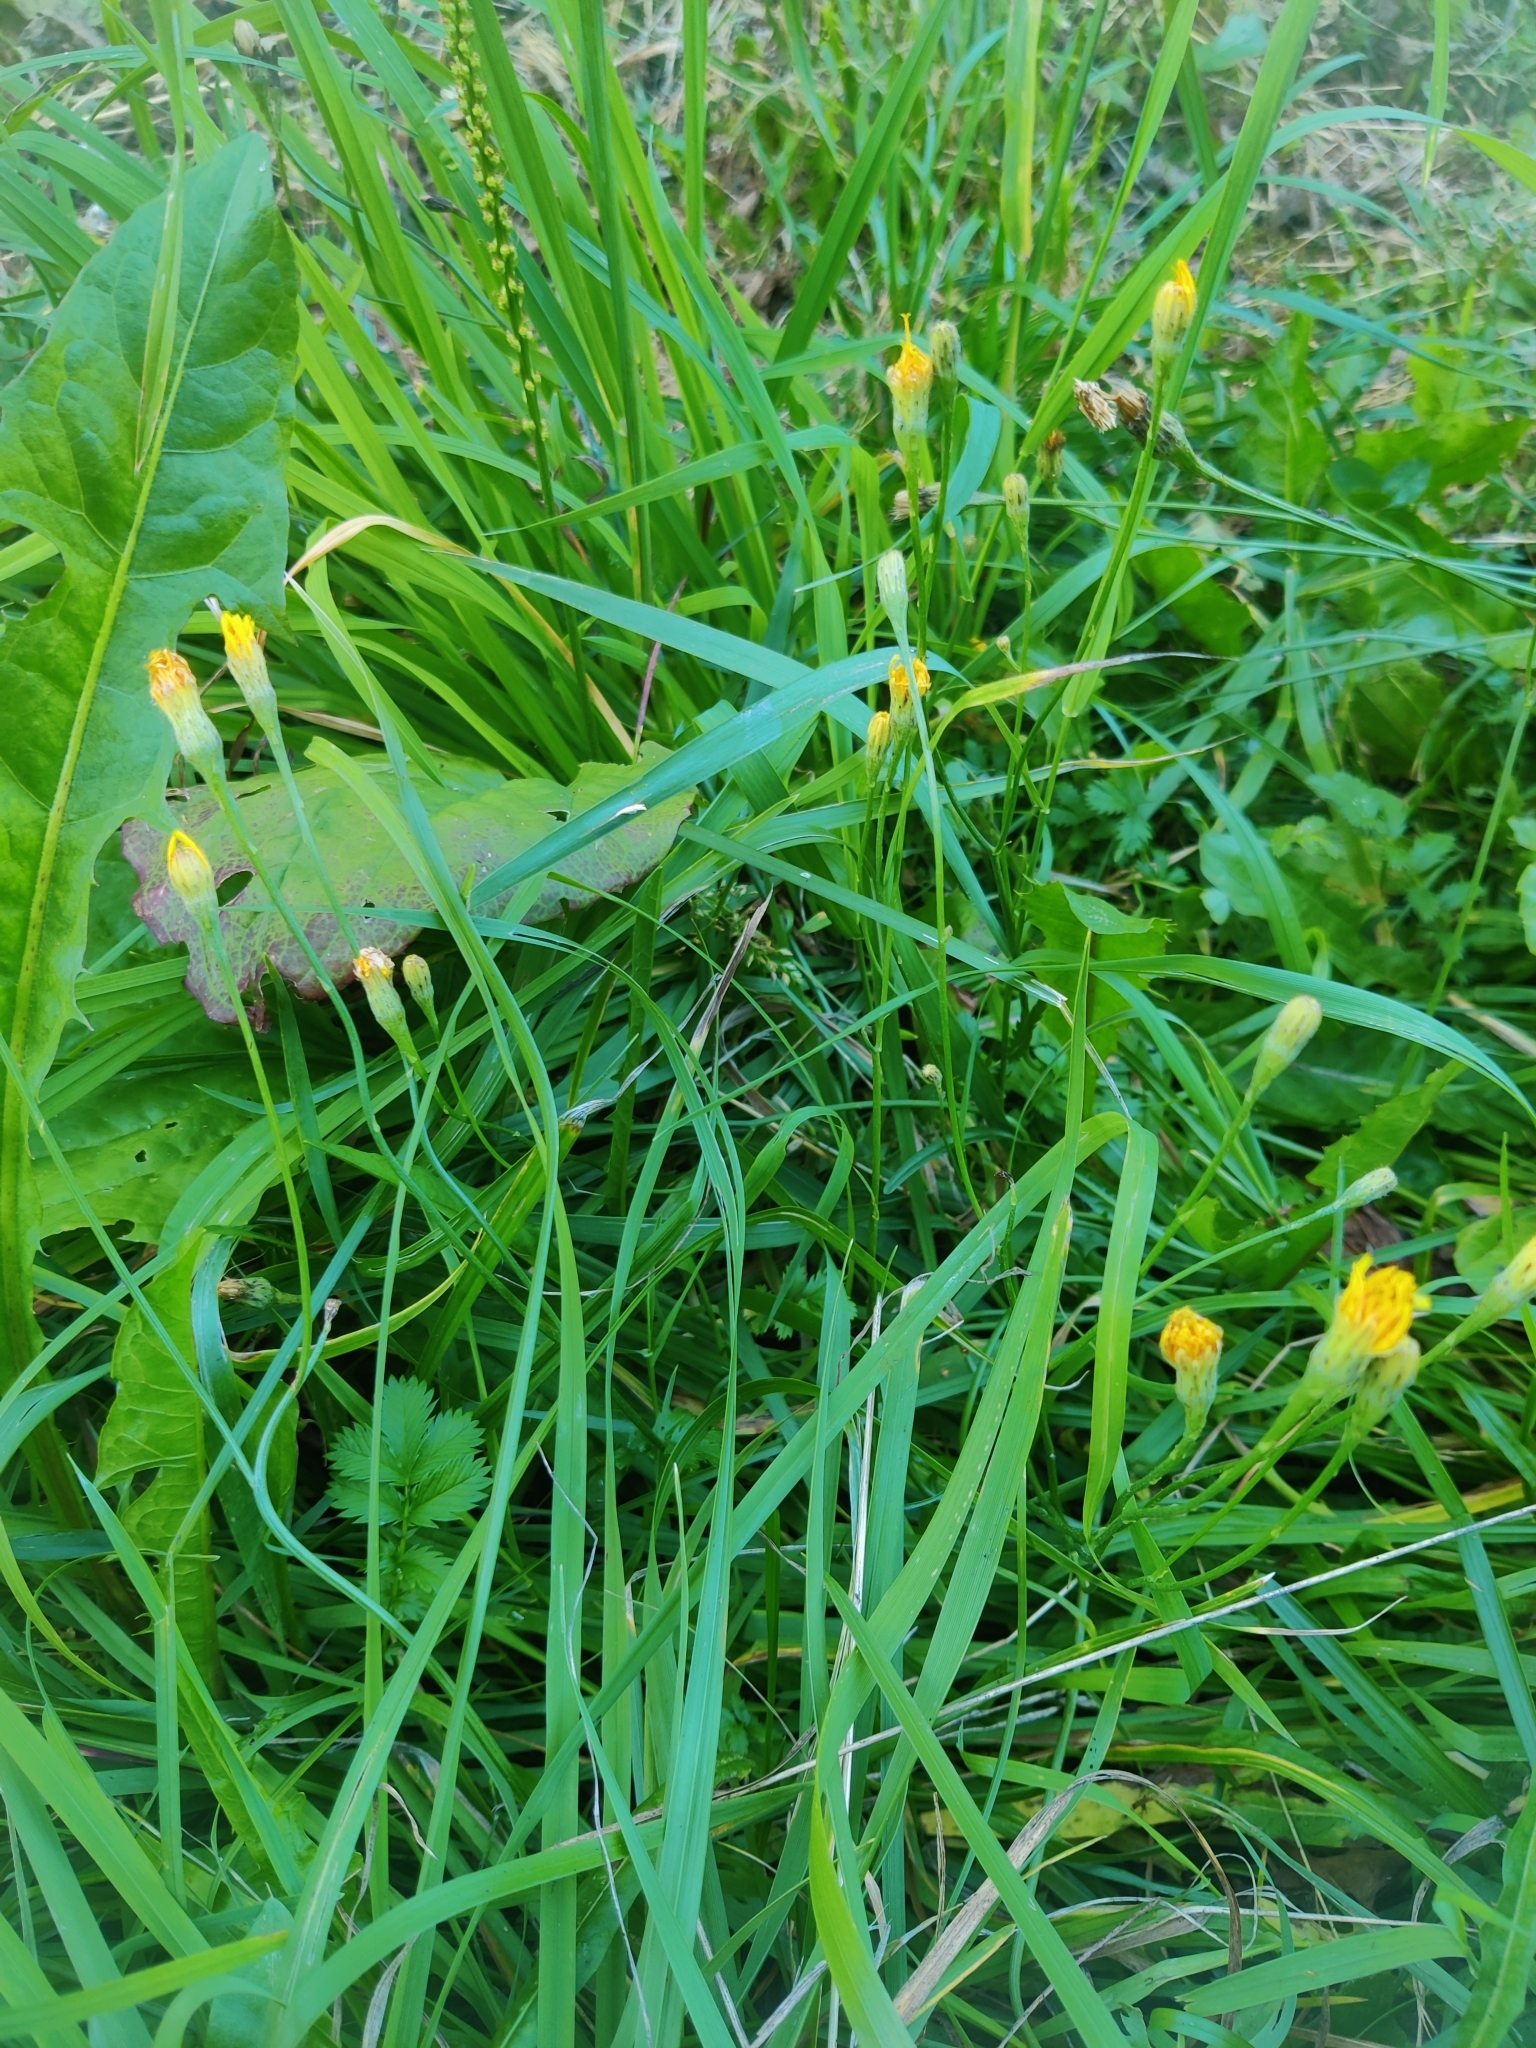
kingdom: Plantae
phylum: Tracheophyta
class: Magnoliopsida
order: Asterales
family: Asteraceae
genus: Scorzoneroides
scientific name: Scorzoneroides autumnalis
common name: Autumn hawkbit
